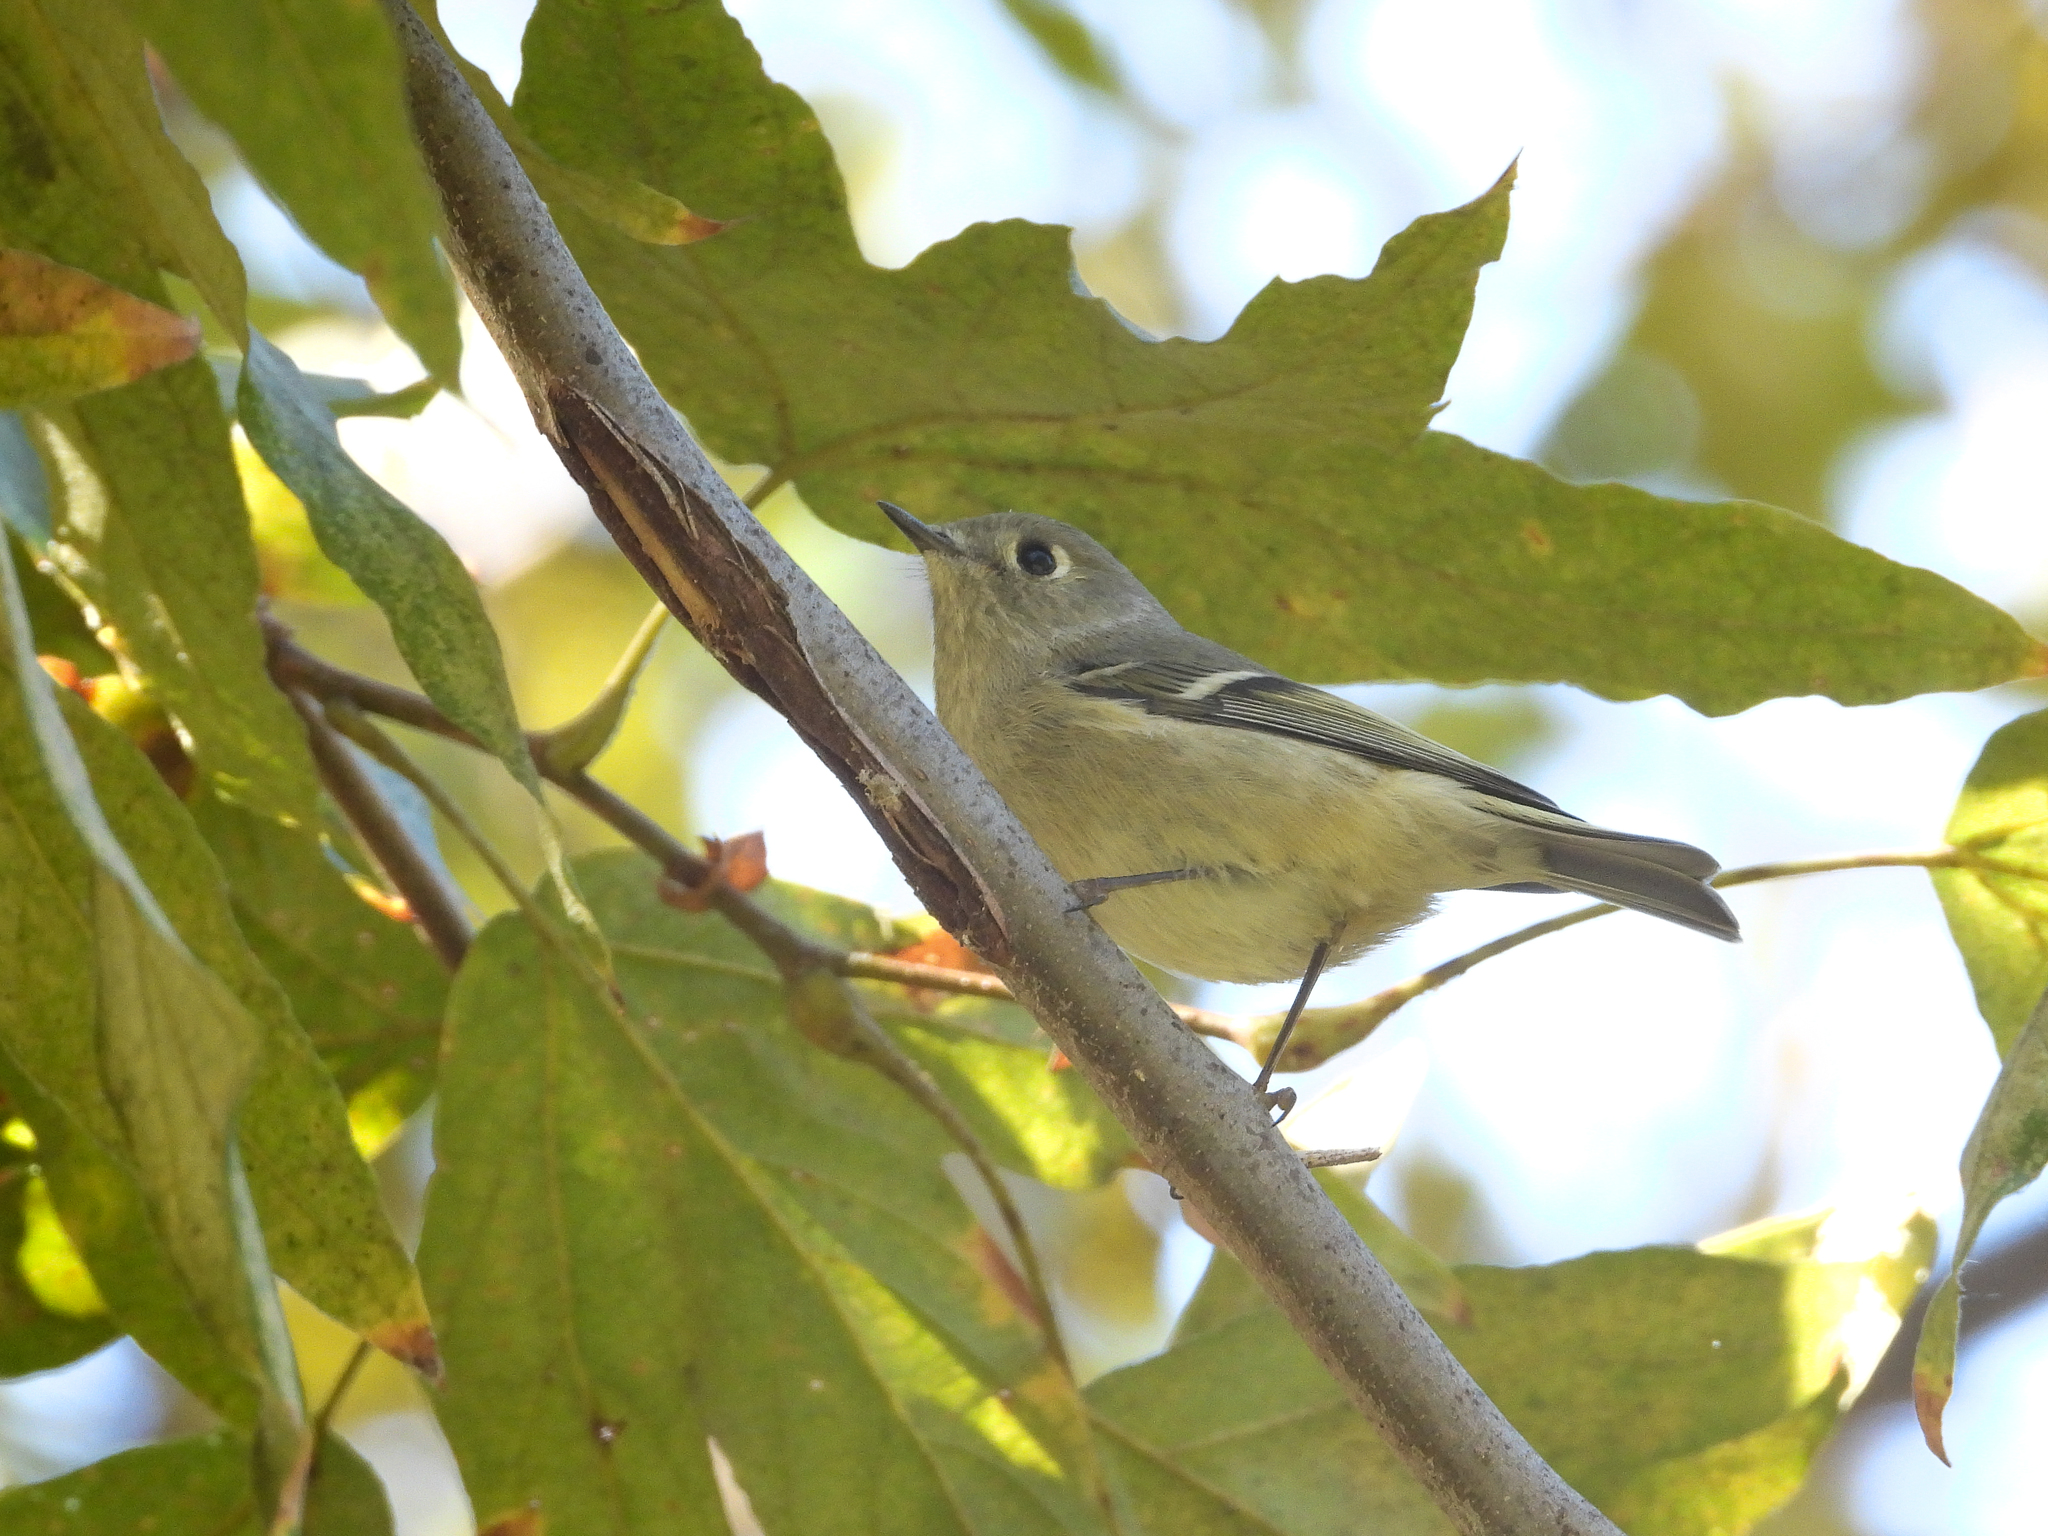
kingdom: Animalia
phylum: Chordata
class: Aves
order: Passeriformes
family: Regulidae
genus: Regulus
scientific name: Regulus calendula
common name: Ruby-crowned kinglet
